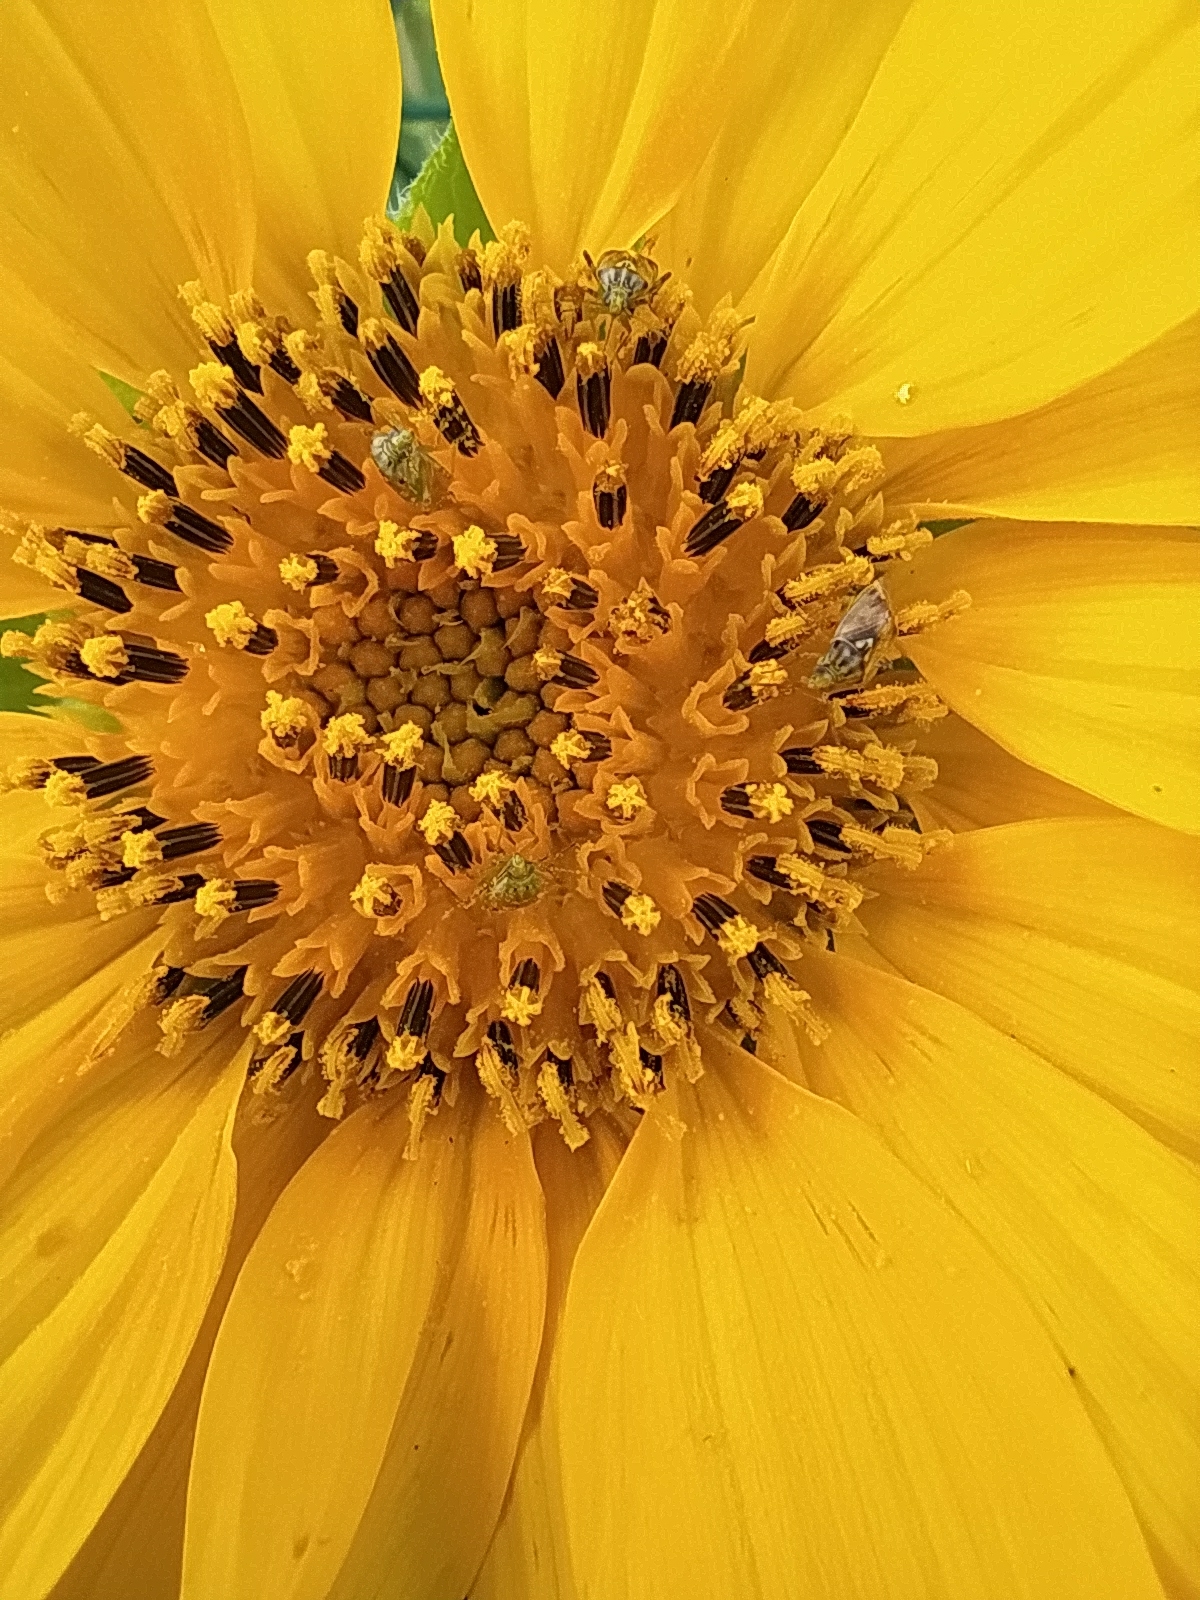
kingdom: Plantae
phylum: Tracheophyta
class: Magnoliopsida
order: Asterales
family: Asteraceae
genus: Helianthus
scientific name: Helianthus annuus
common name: Sunflower
